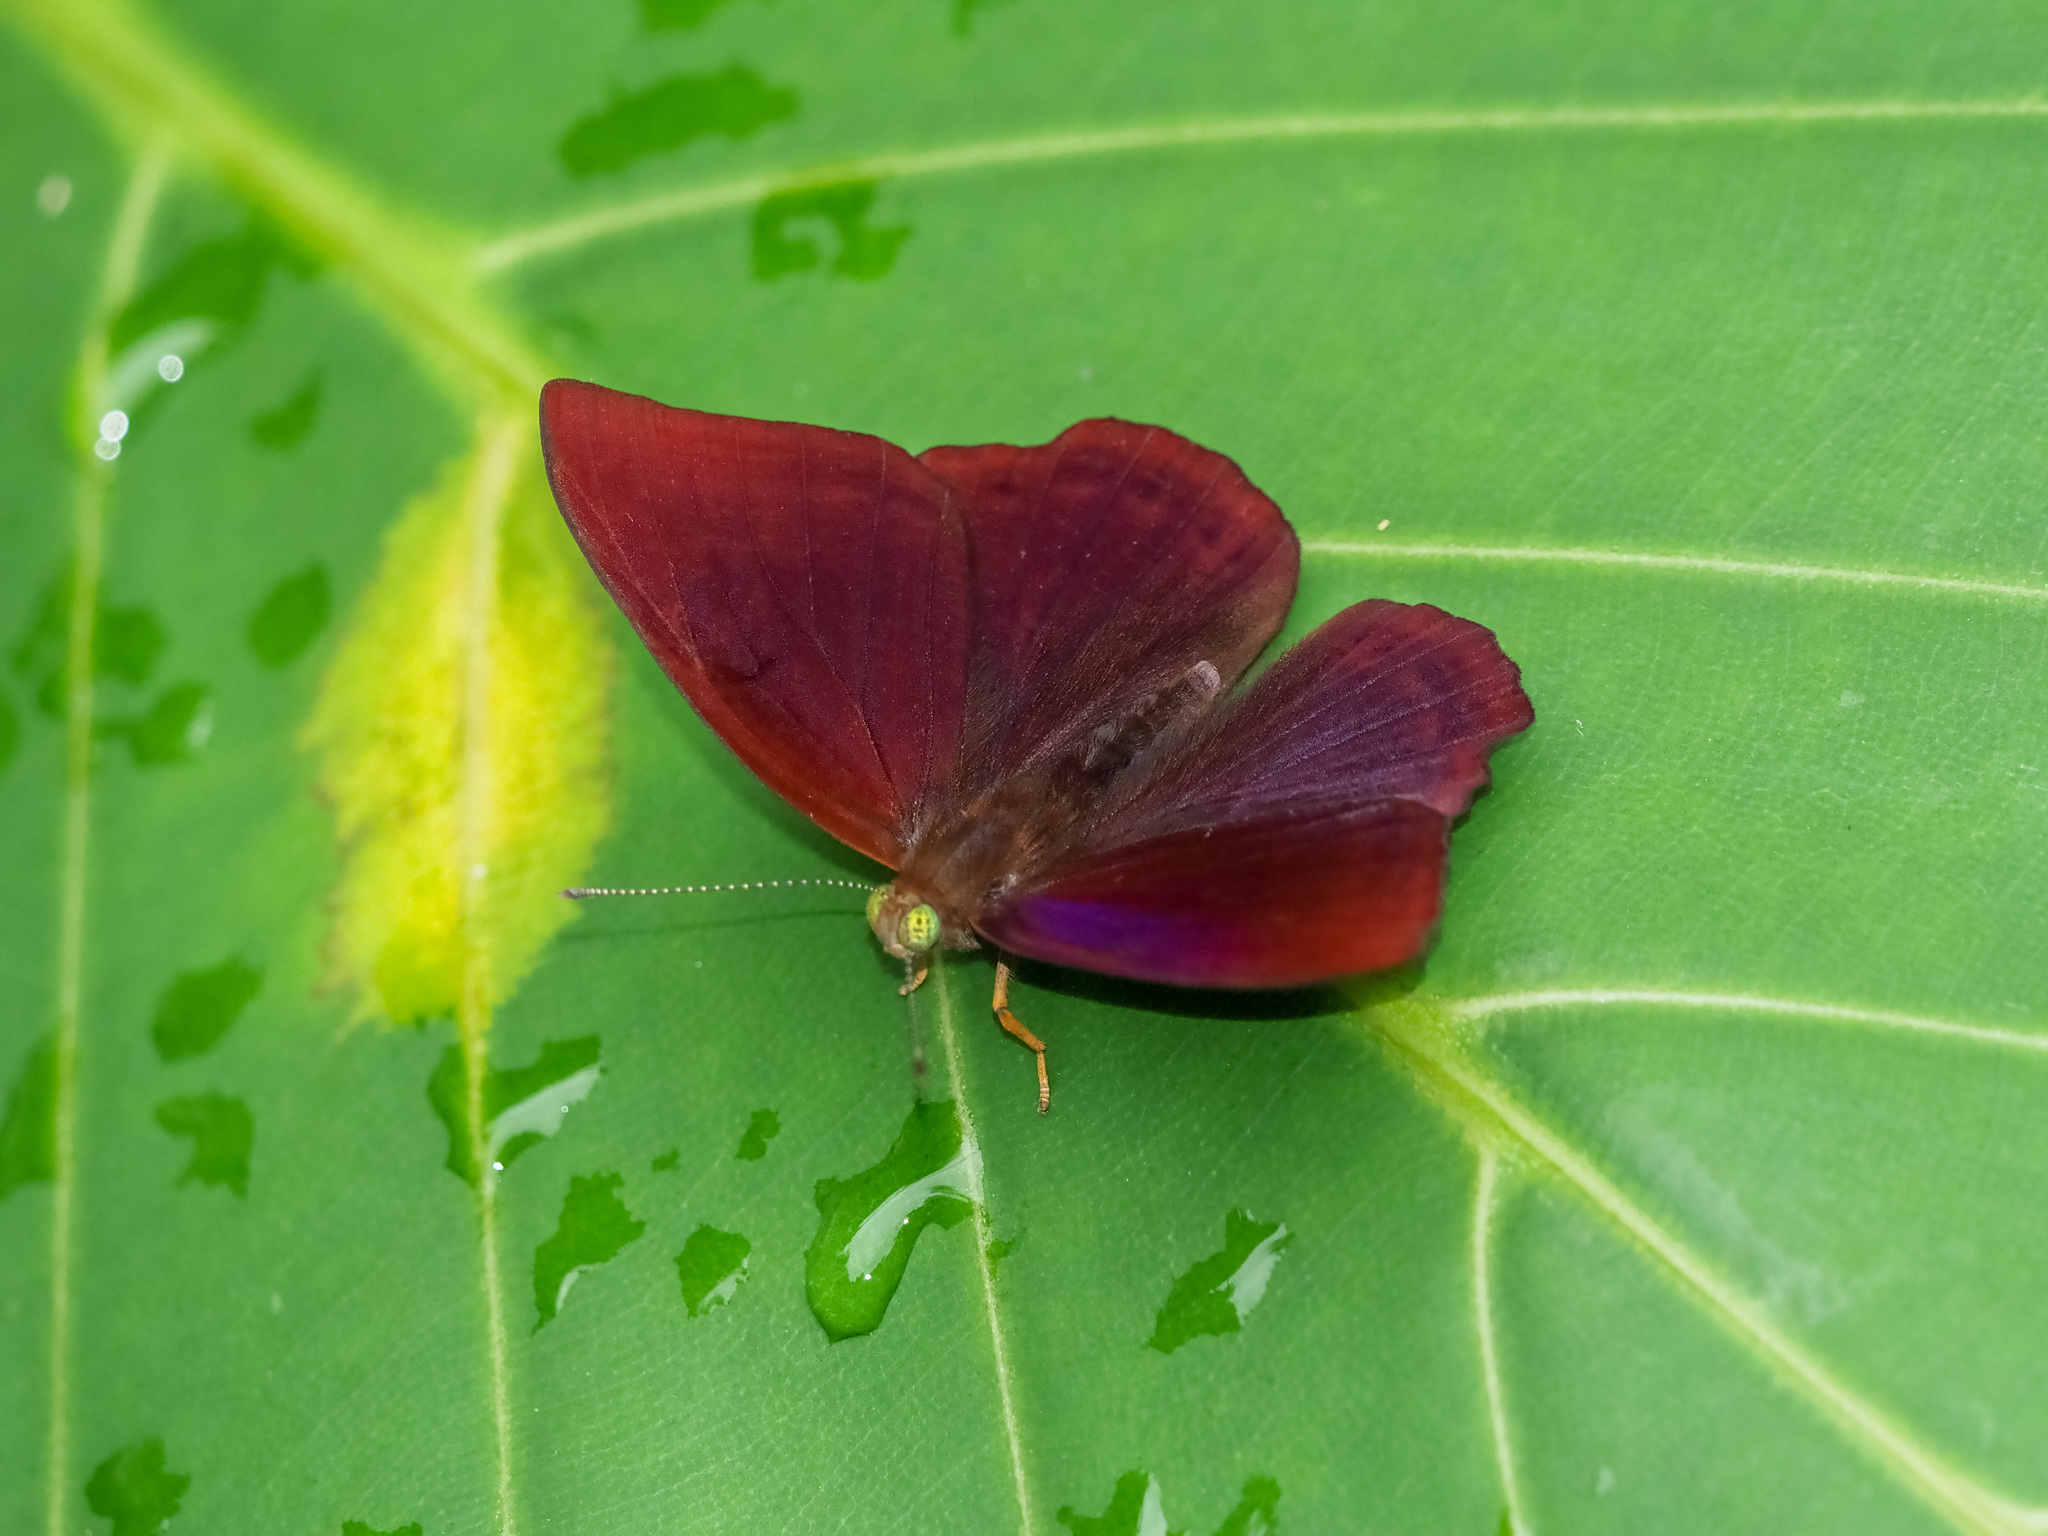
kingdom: Animalia
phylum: Arthropoda
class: Insecta
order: Lepidoptera
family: Lycaenidae
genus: Abisara
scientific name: Abisara saturata
